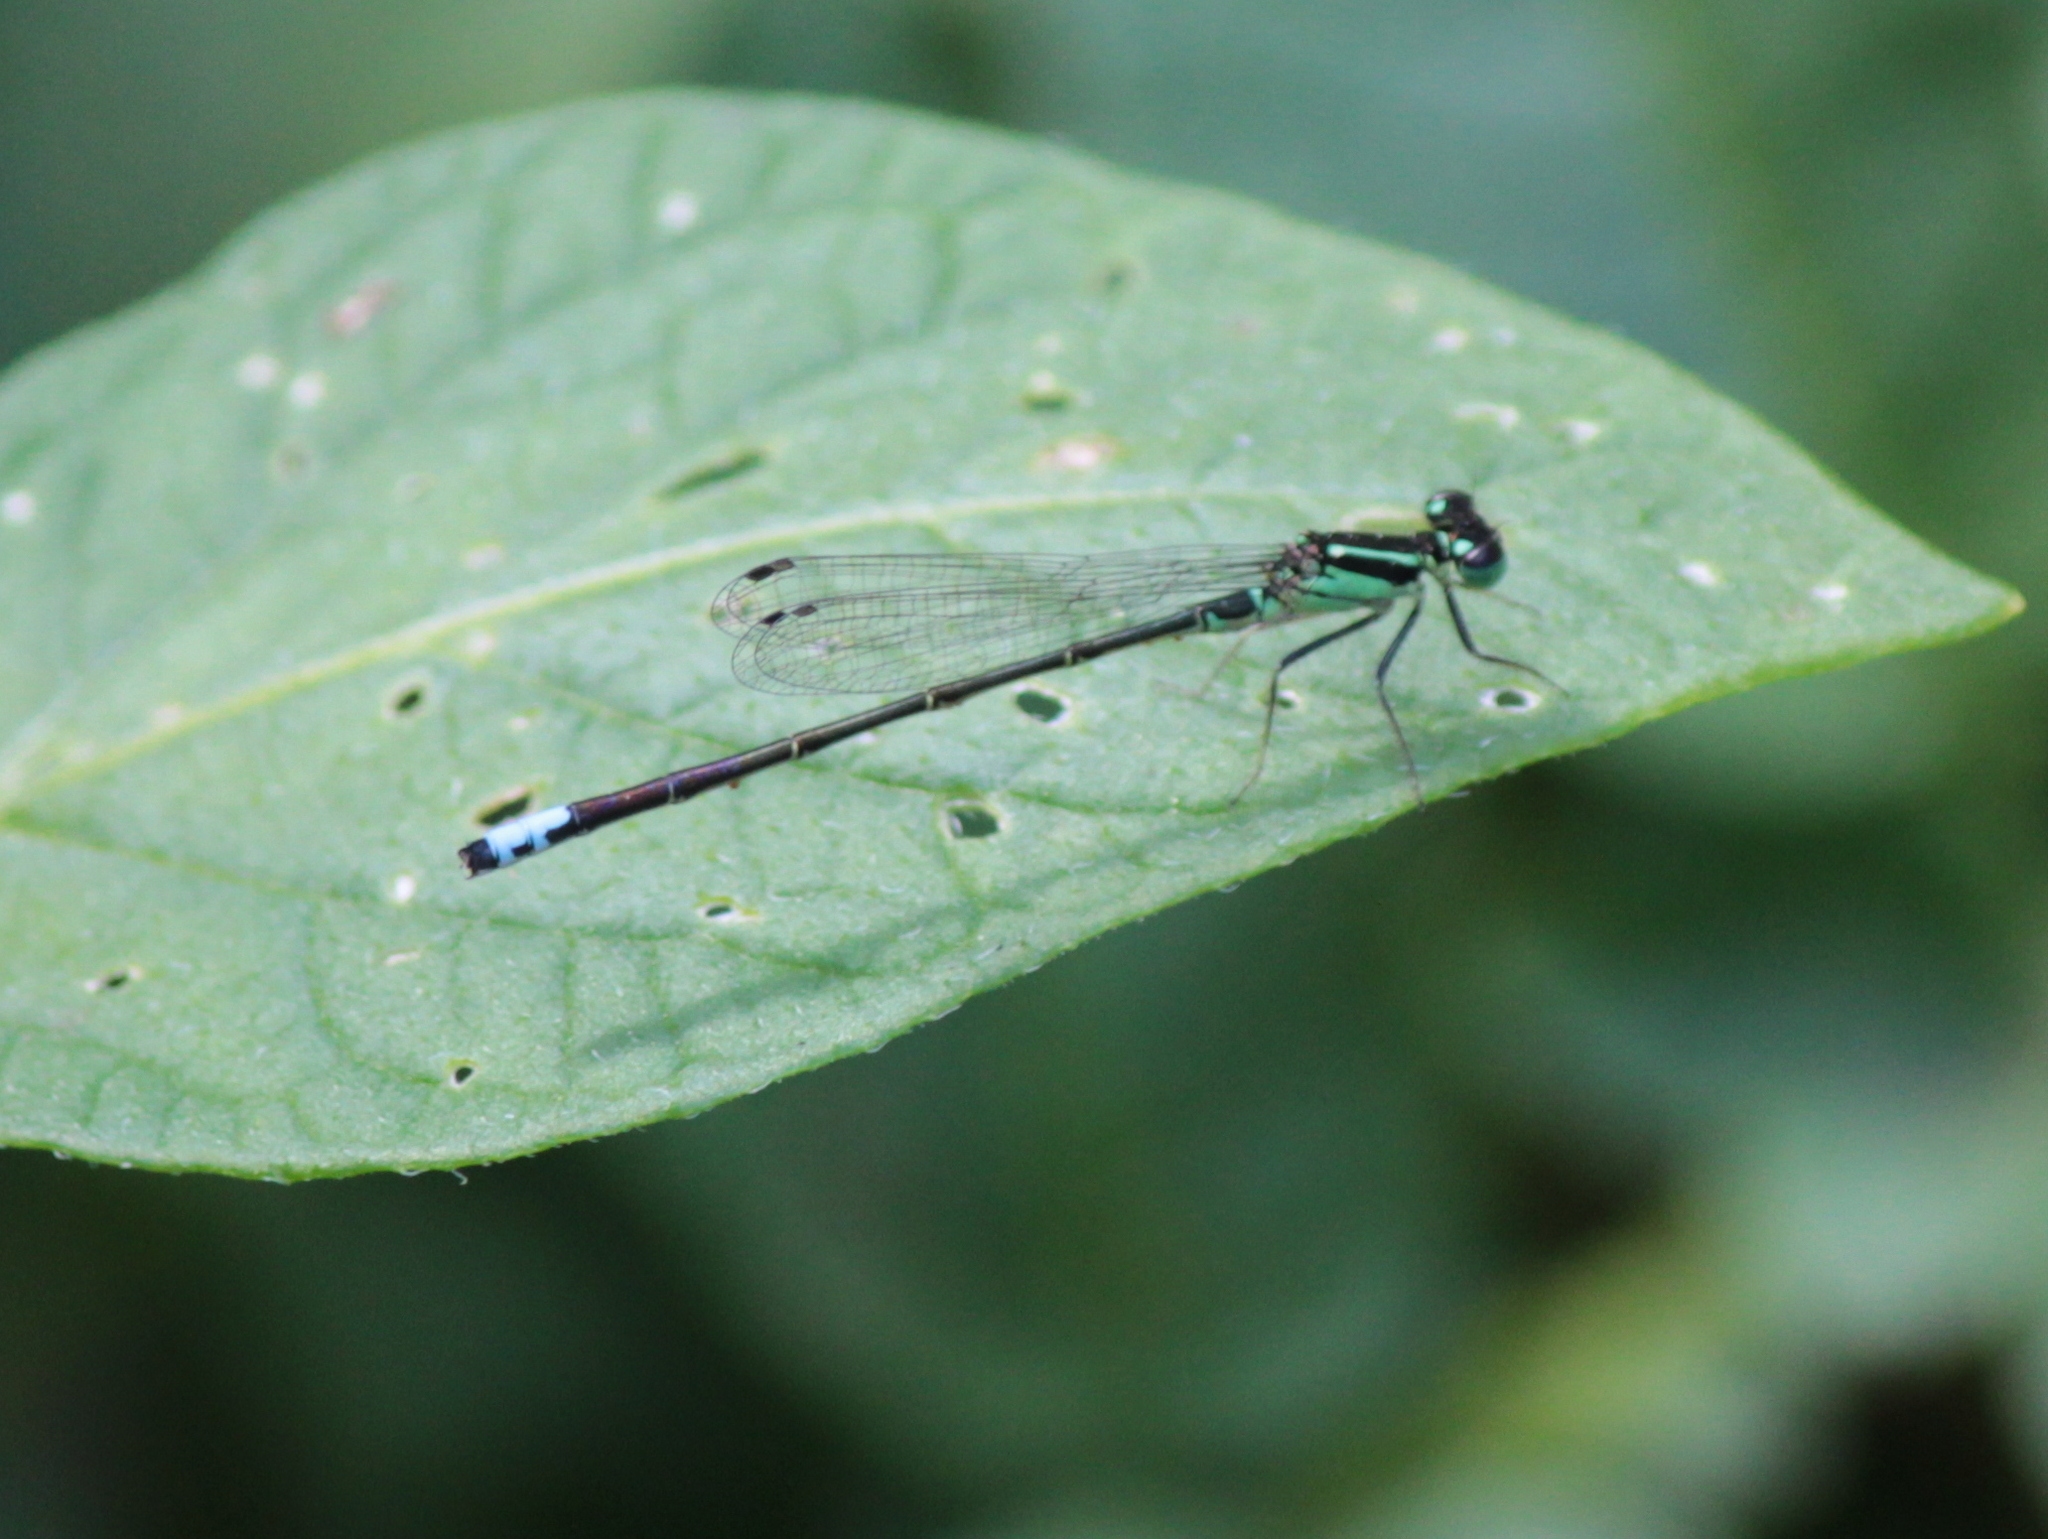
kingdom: Animalia
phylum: Arthropoda
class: Insecta
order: Odonata
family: Coenagrionidae
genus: Ischnura
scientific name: Ischnura verticalis
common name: Eastern forktail
